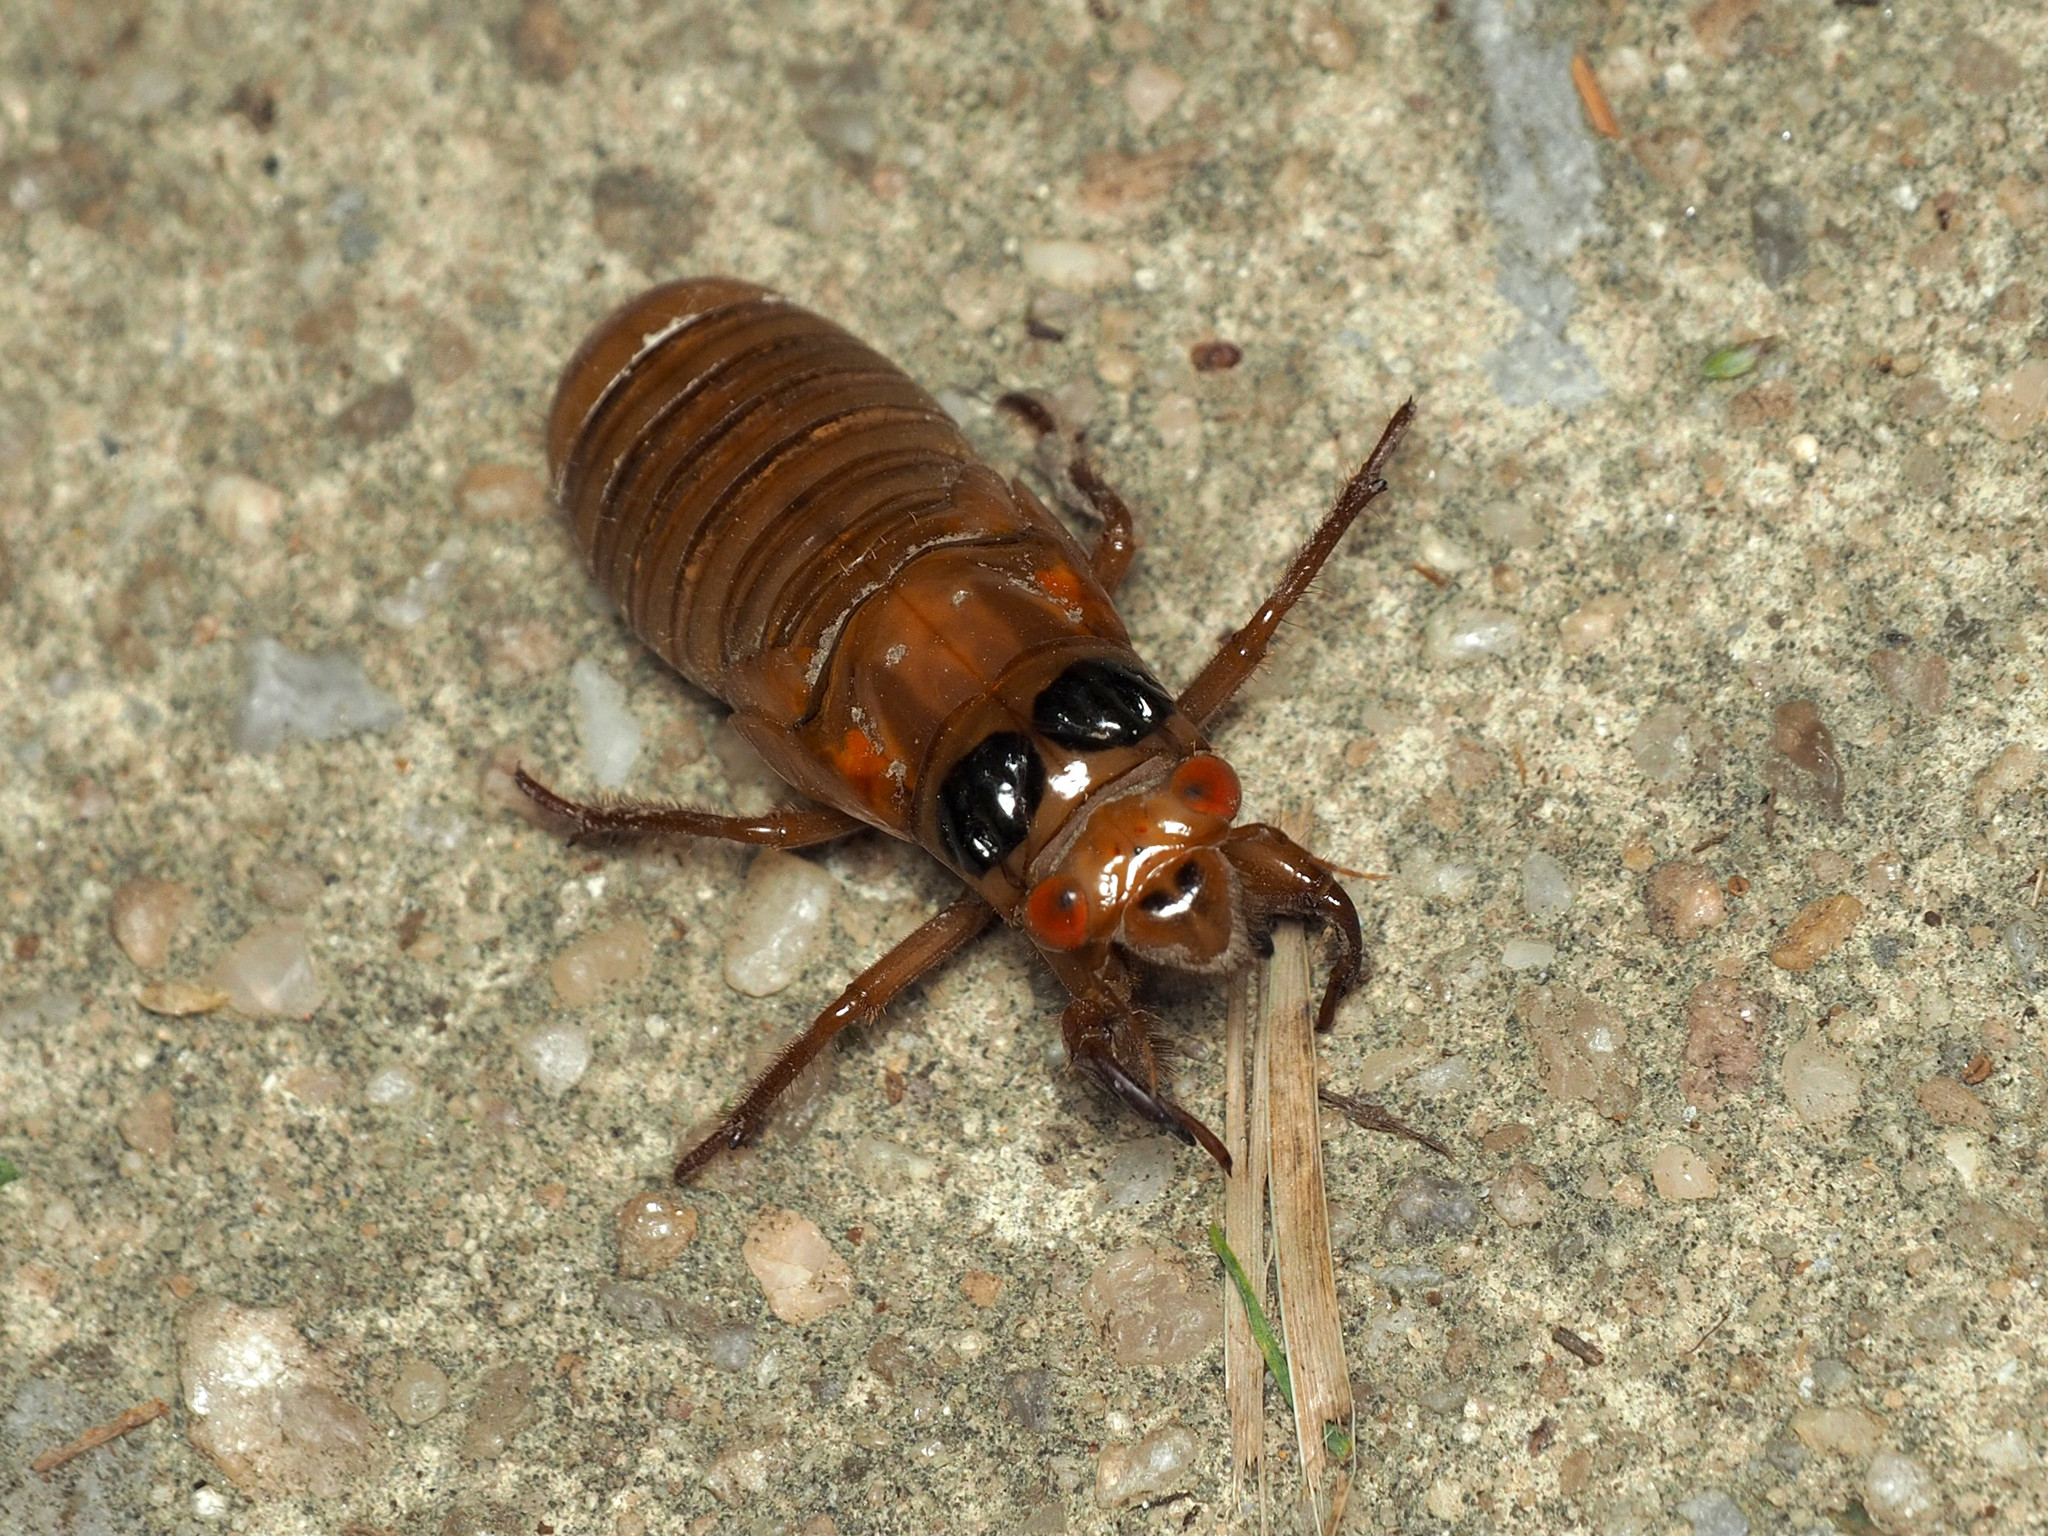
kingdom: Animalia
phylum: Arthropoda
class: Insecta
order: Hemiptera
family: Cicadidae
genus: Magicicada
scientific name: Magicicada
